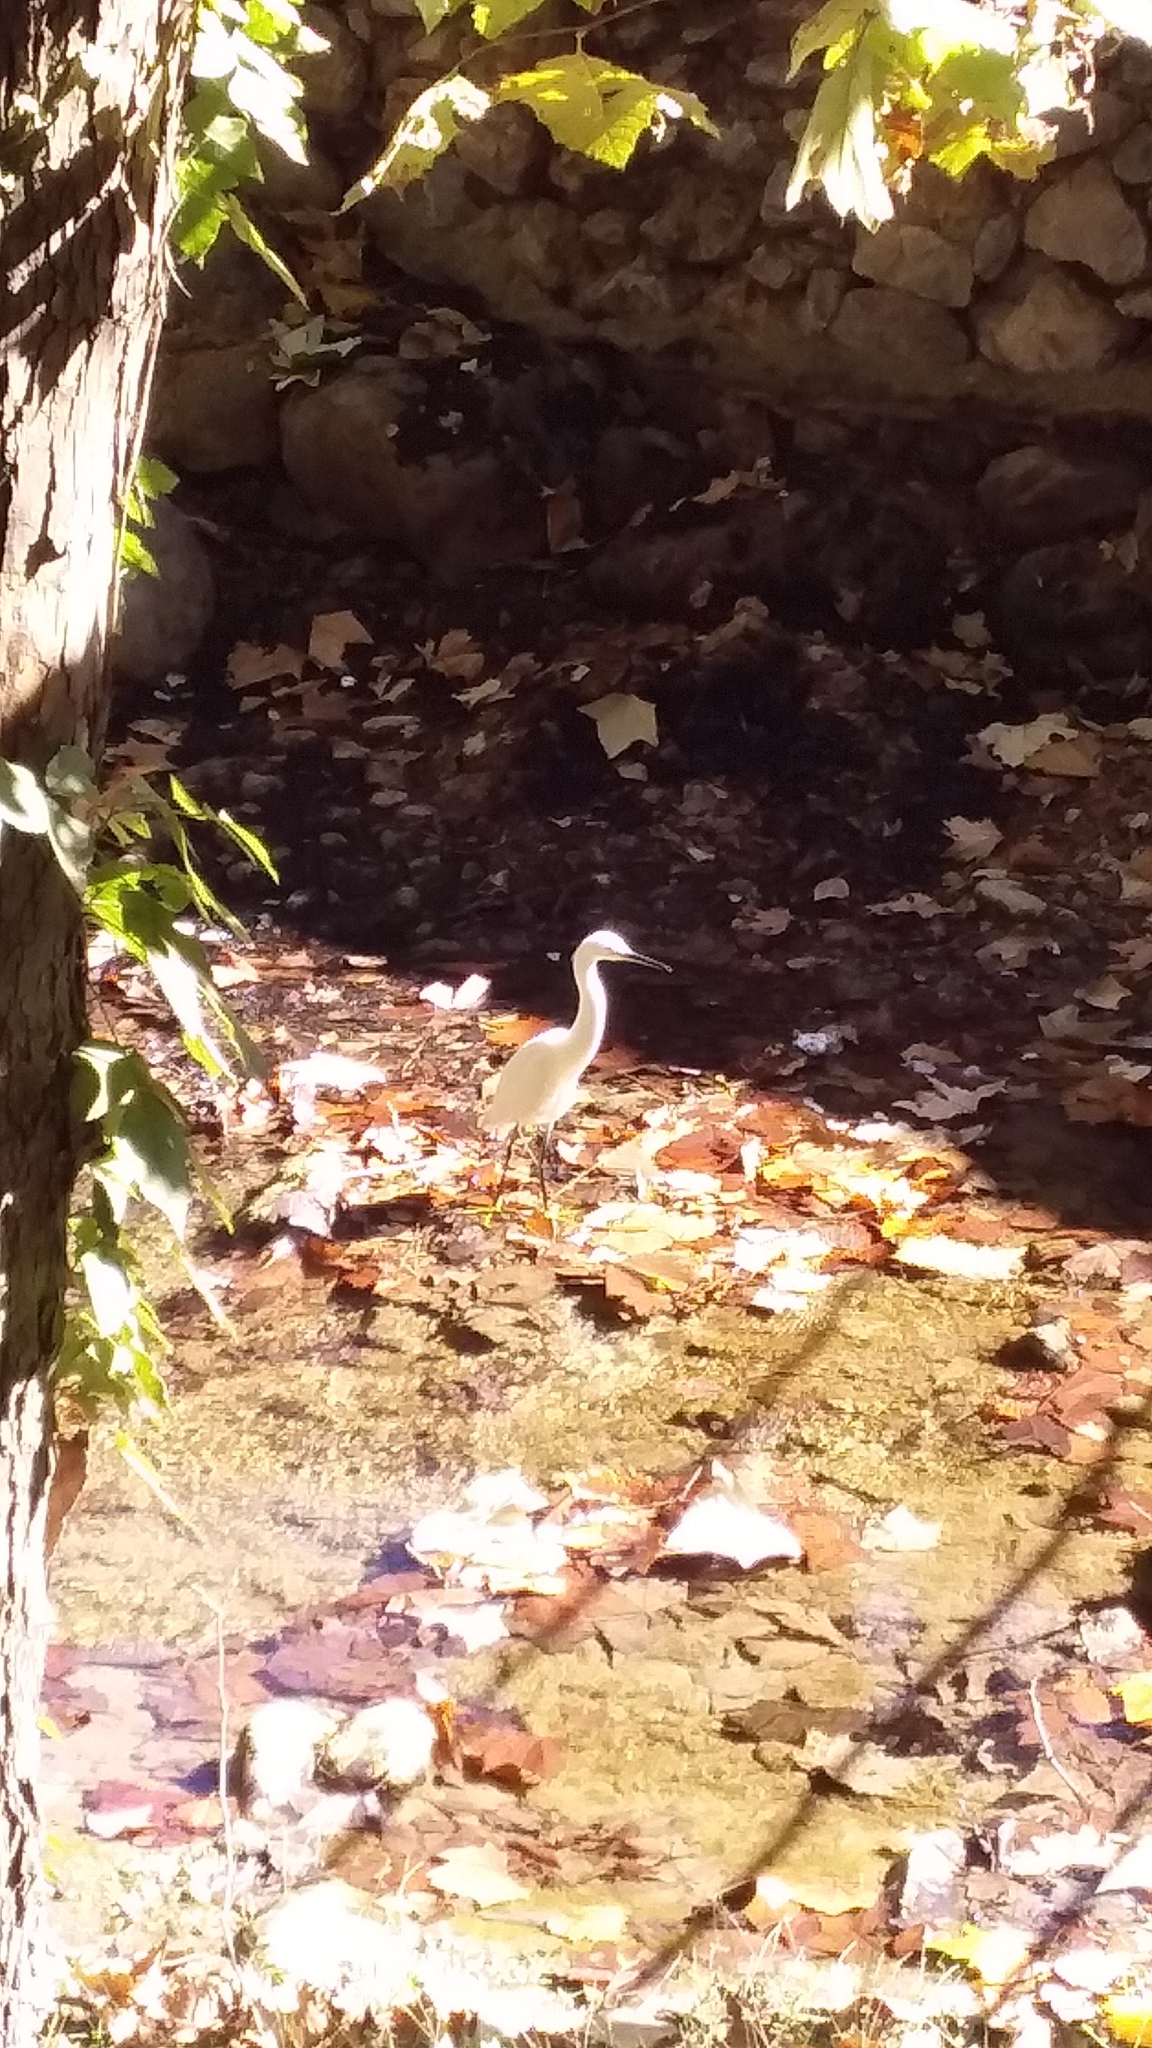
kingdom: Animalia
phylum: Chordata
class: Aves
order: Pelecaniformes
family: Ardeidae
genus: Egretta
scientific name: Egretta thula
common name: Snowy egret
